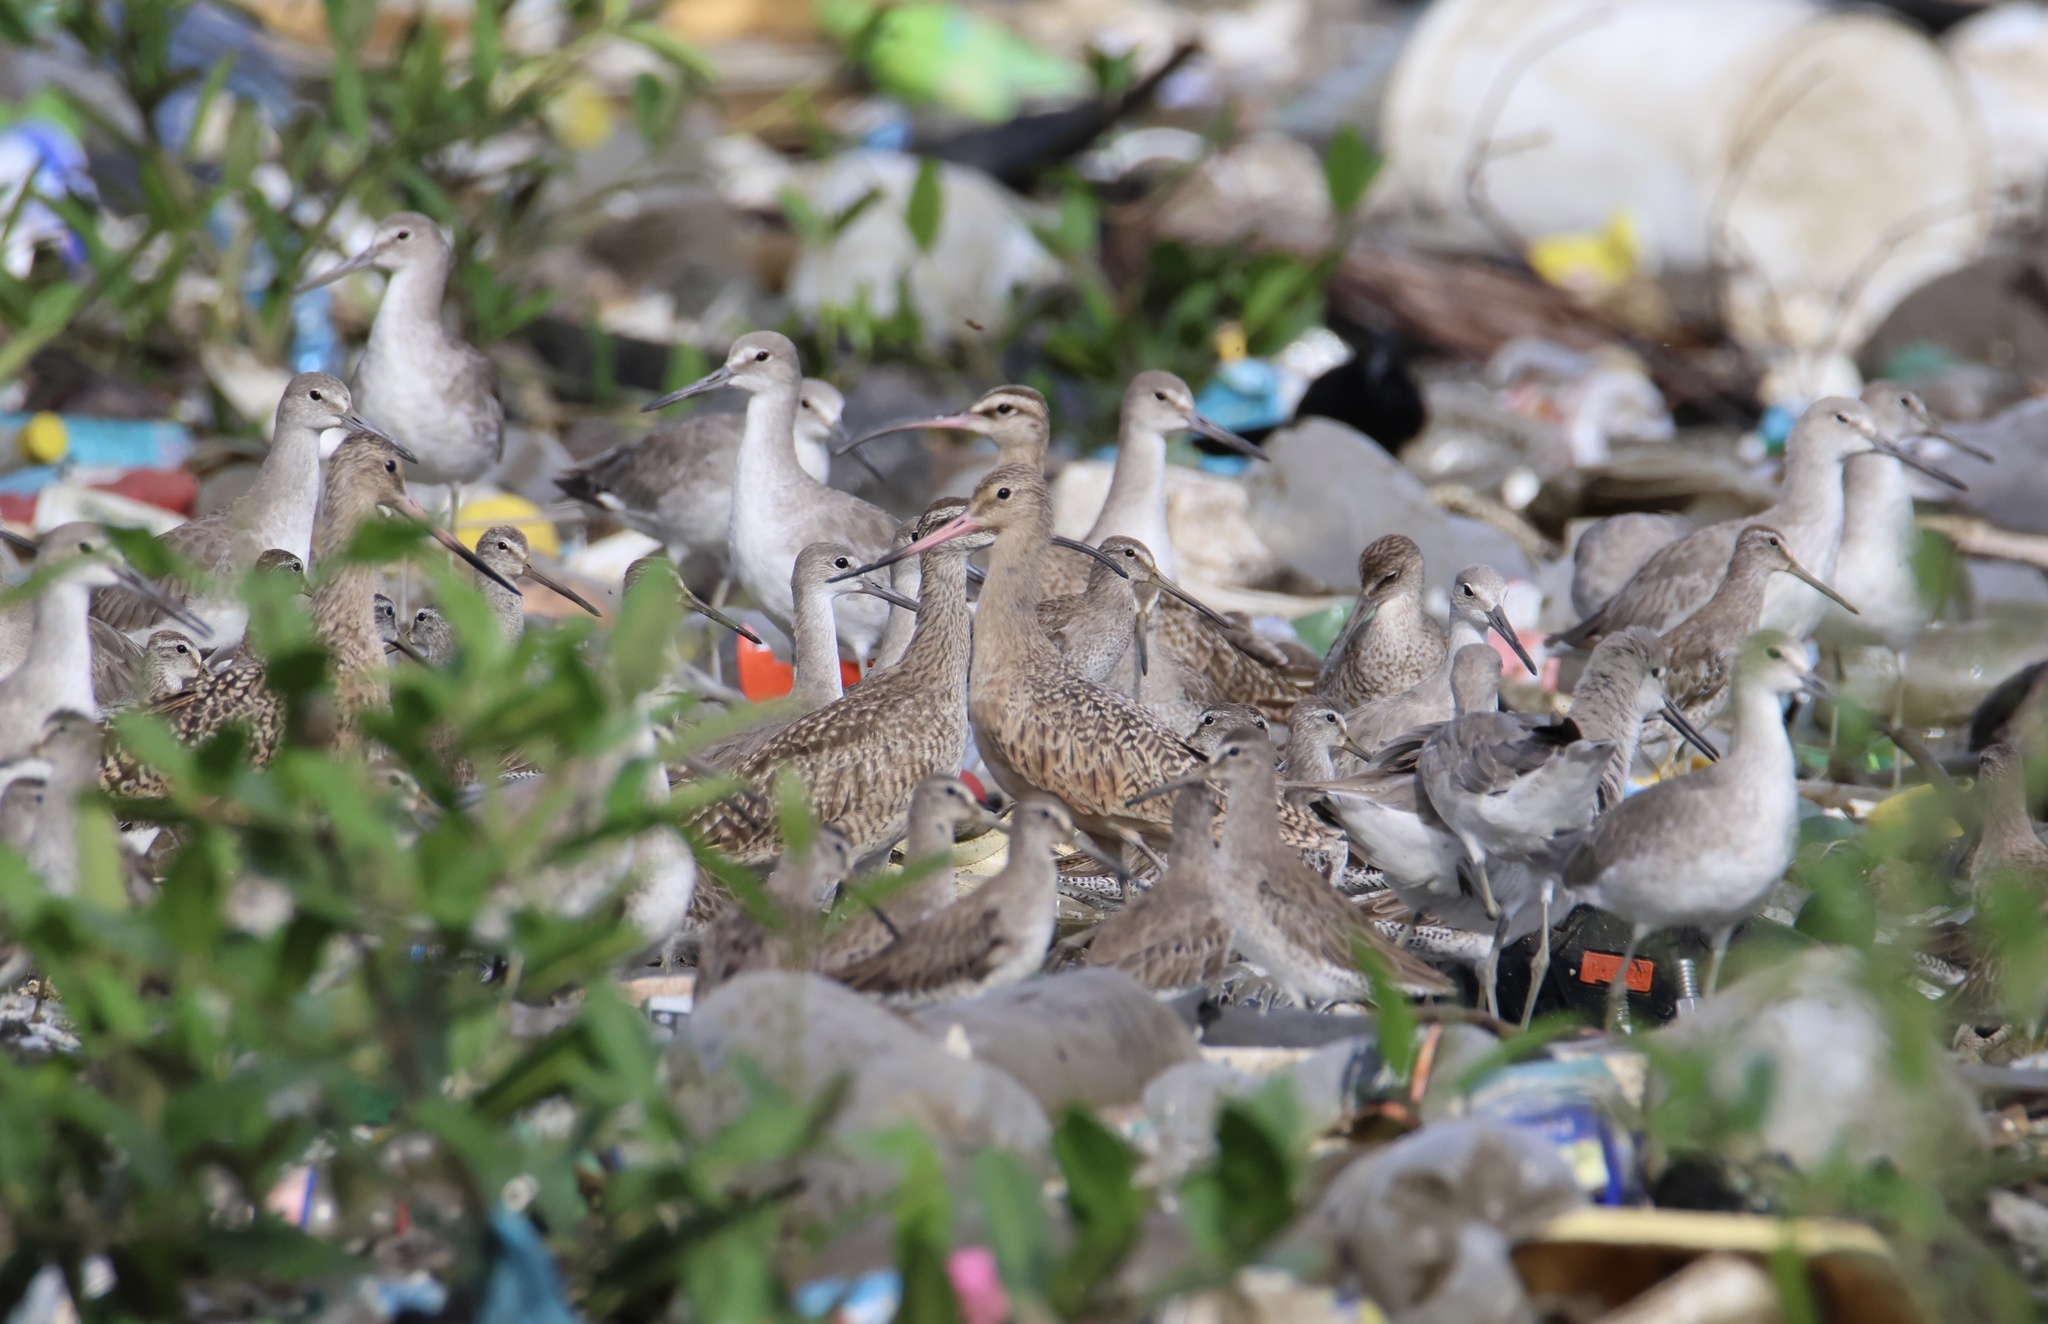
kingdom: Animalia
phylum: Chordata
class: Aves
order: Charadriiformes
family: Scolopacidae
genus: Limosa
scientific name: Limosa fedoa
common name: Marbled godwit
